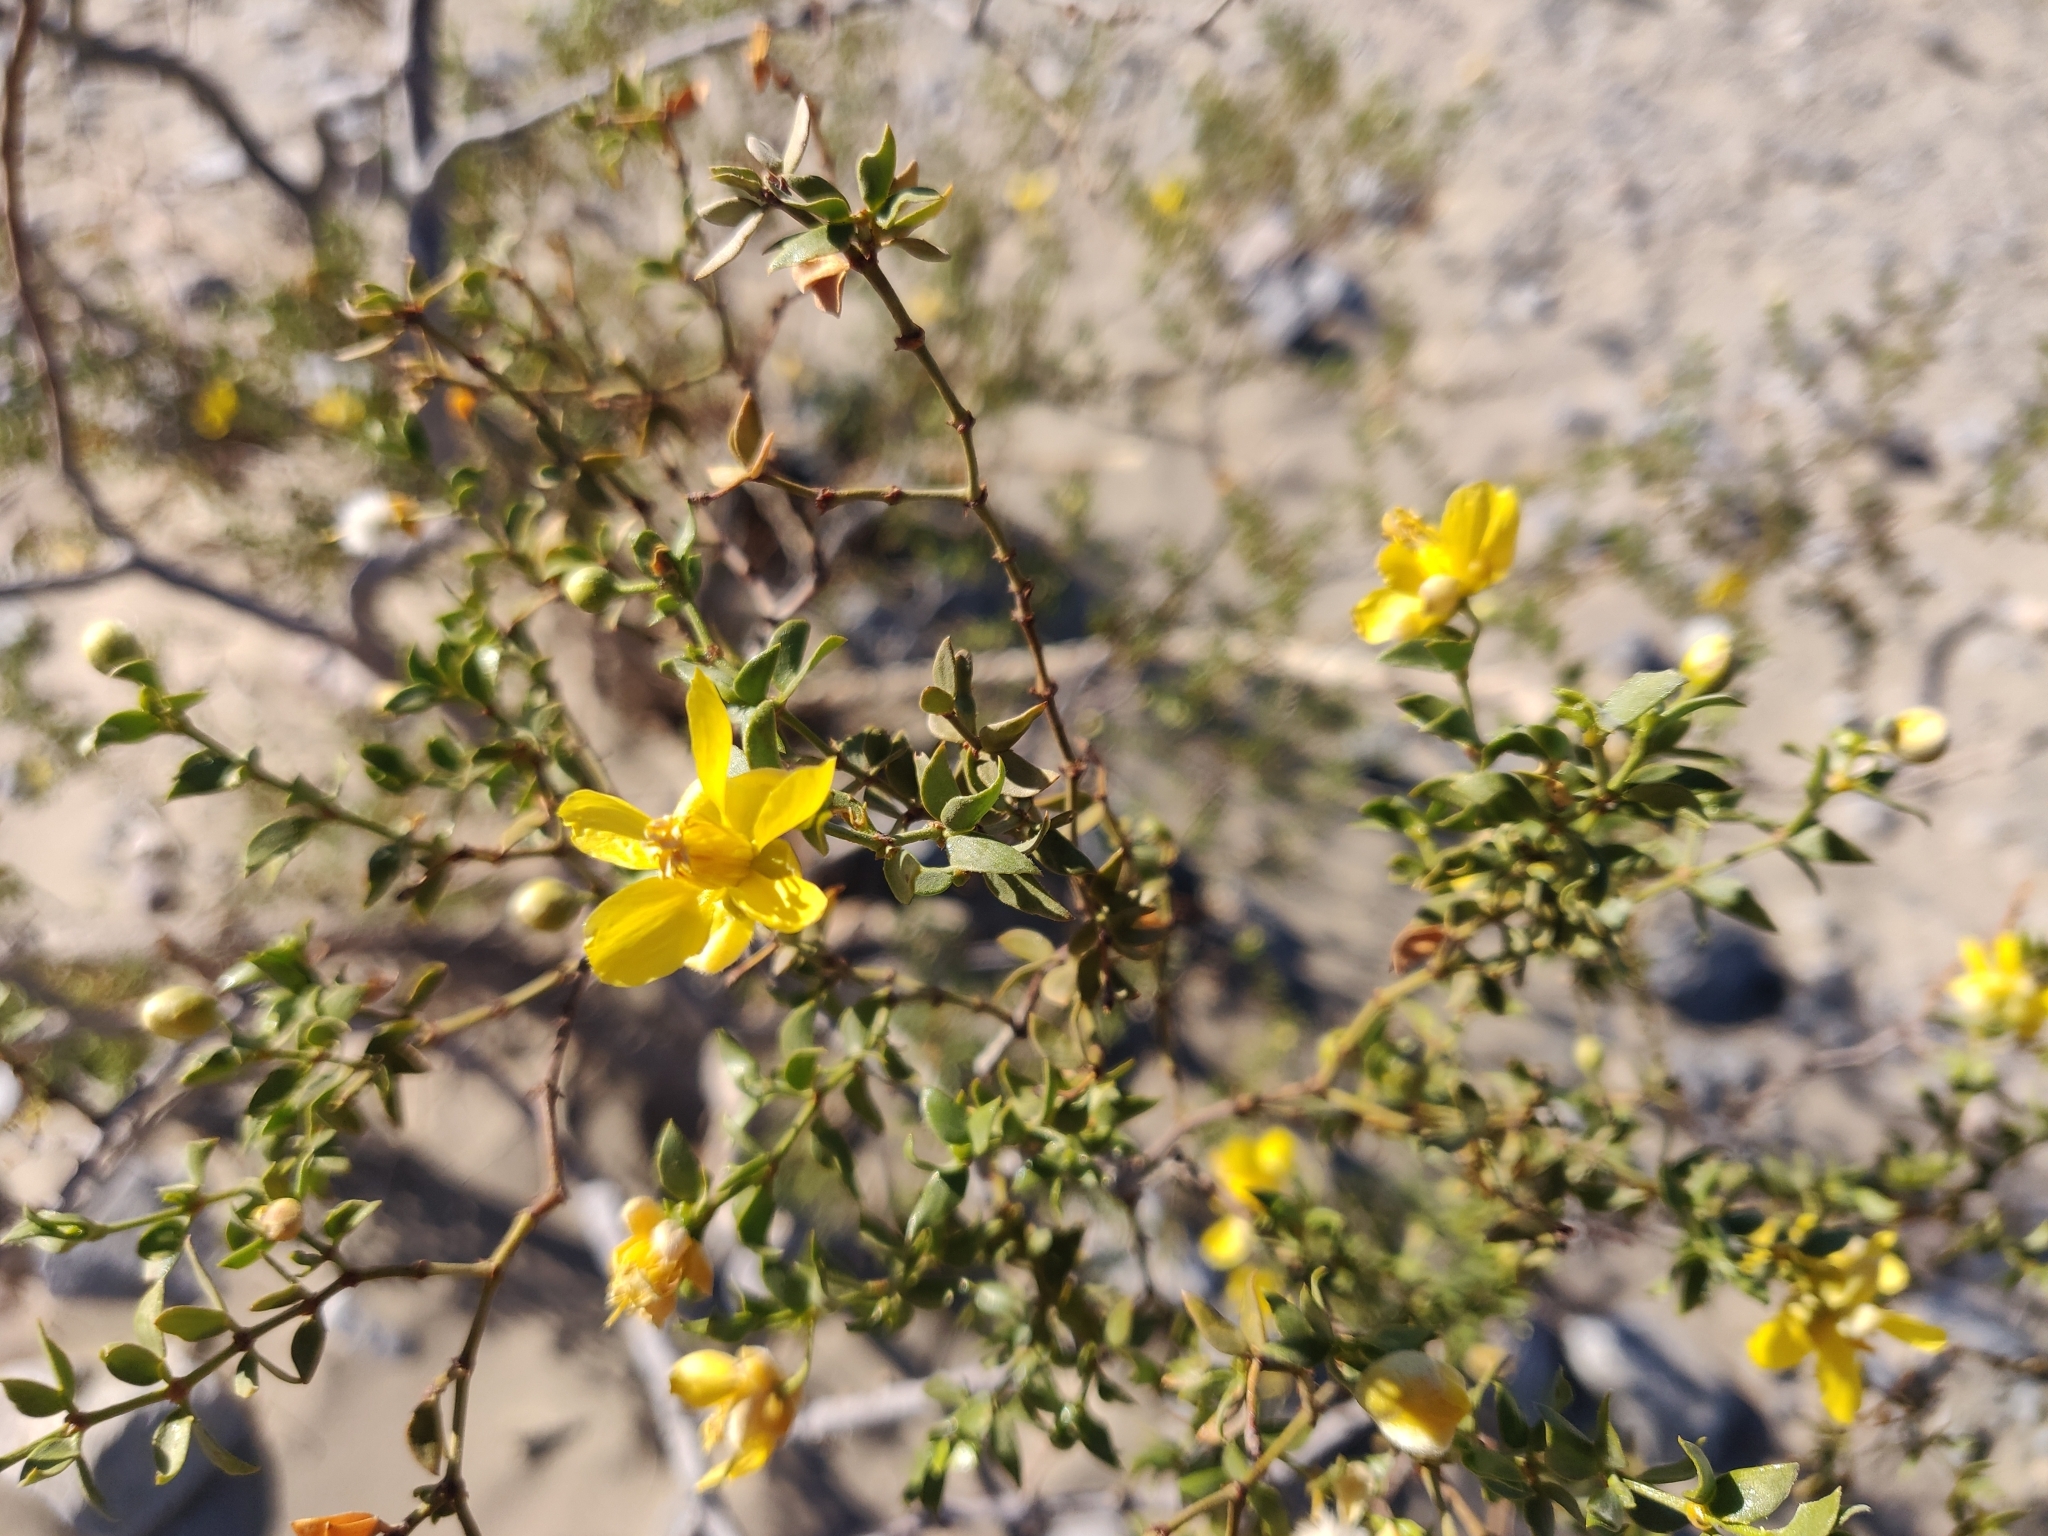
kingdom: Plantae
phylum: Tracheophyta
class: Magnoliopsida
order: Zygophyllales
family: Zygophyllaceae
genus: Larrea
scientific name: Larrea tridentata
